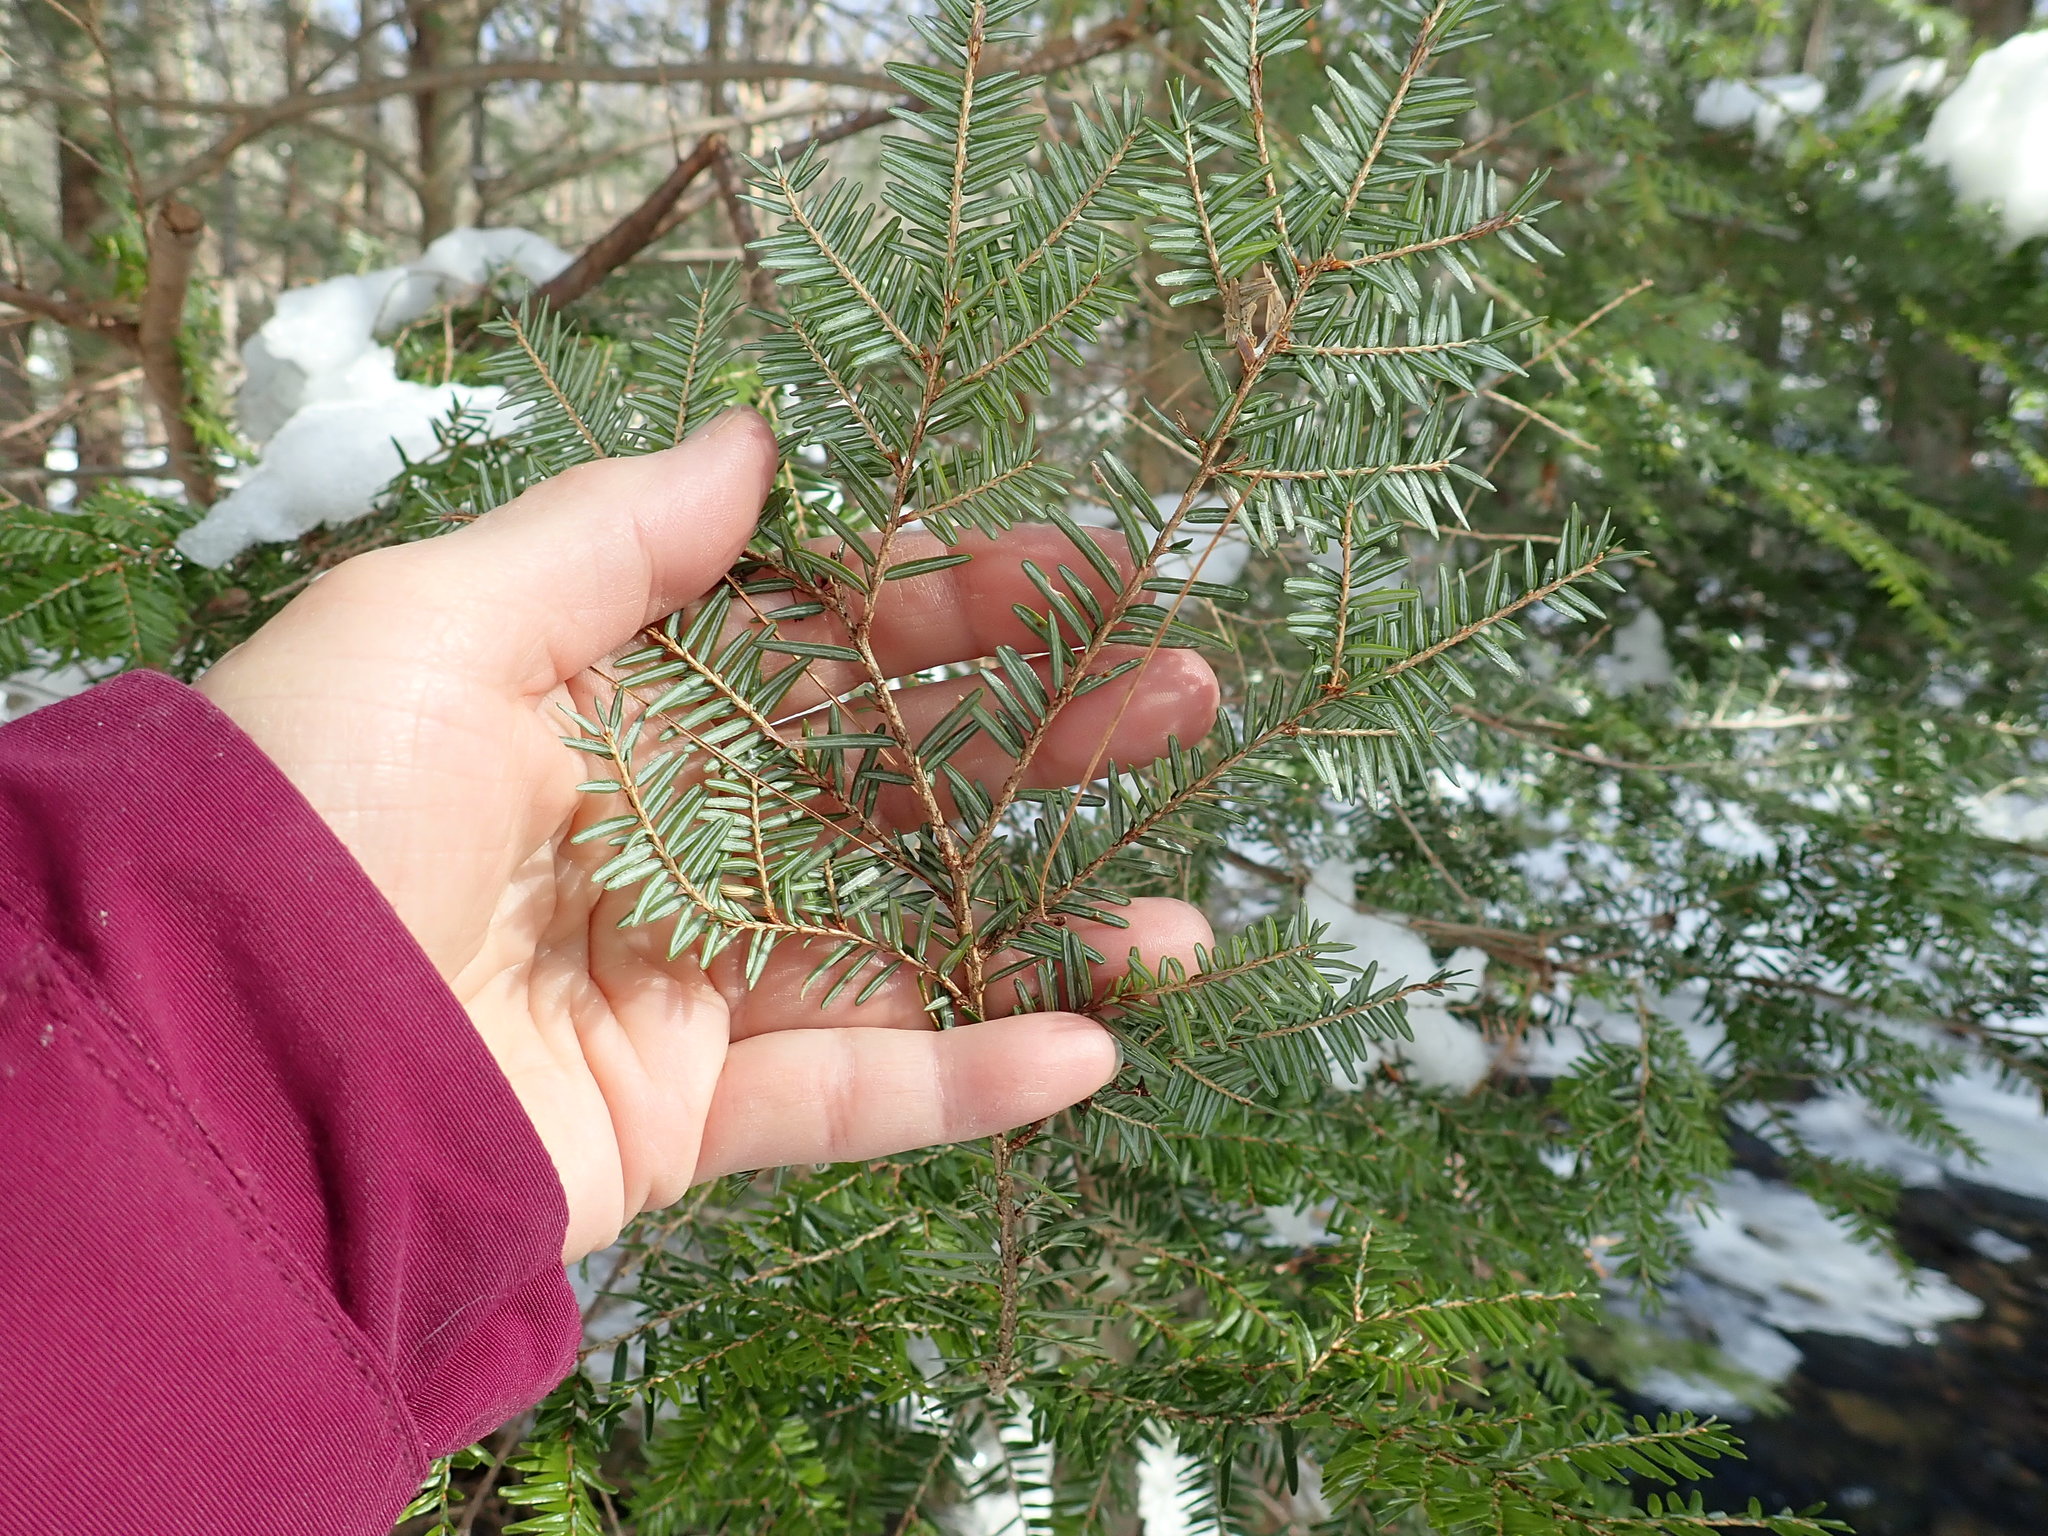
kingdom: Plantae
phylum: Tracheophyta
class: Pinopsida
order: Pinales
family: Pinaceae
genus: Tsuga
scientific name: Tsuga canadensis
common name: Eastern hemlock
